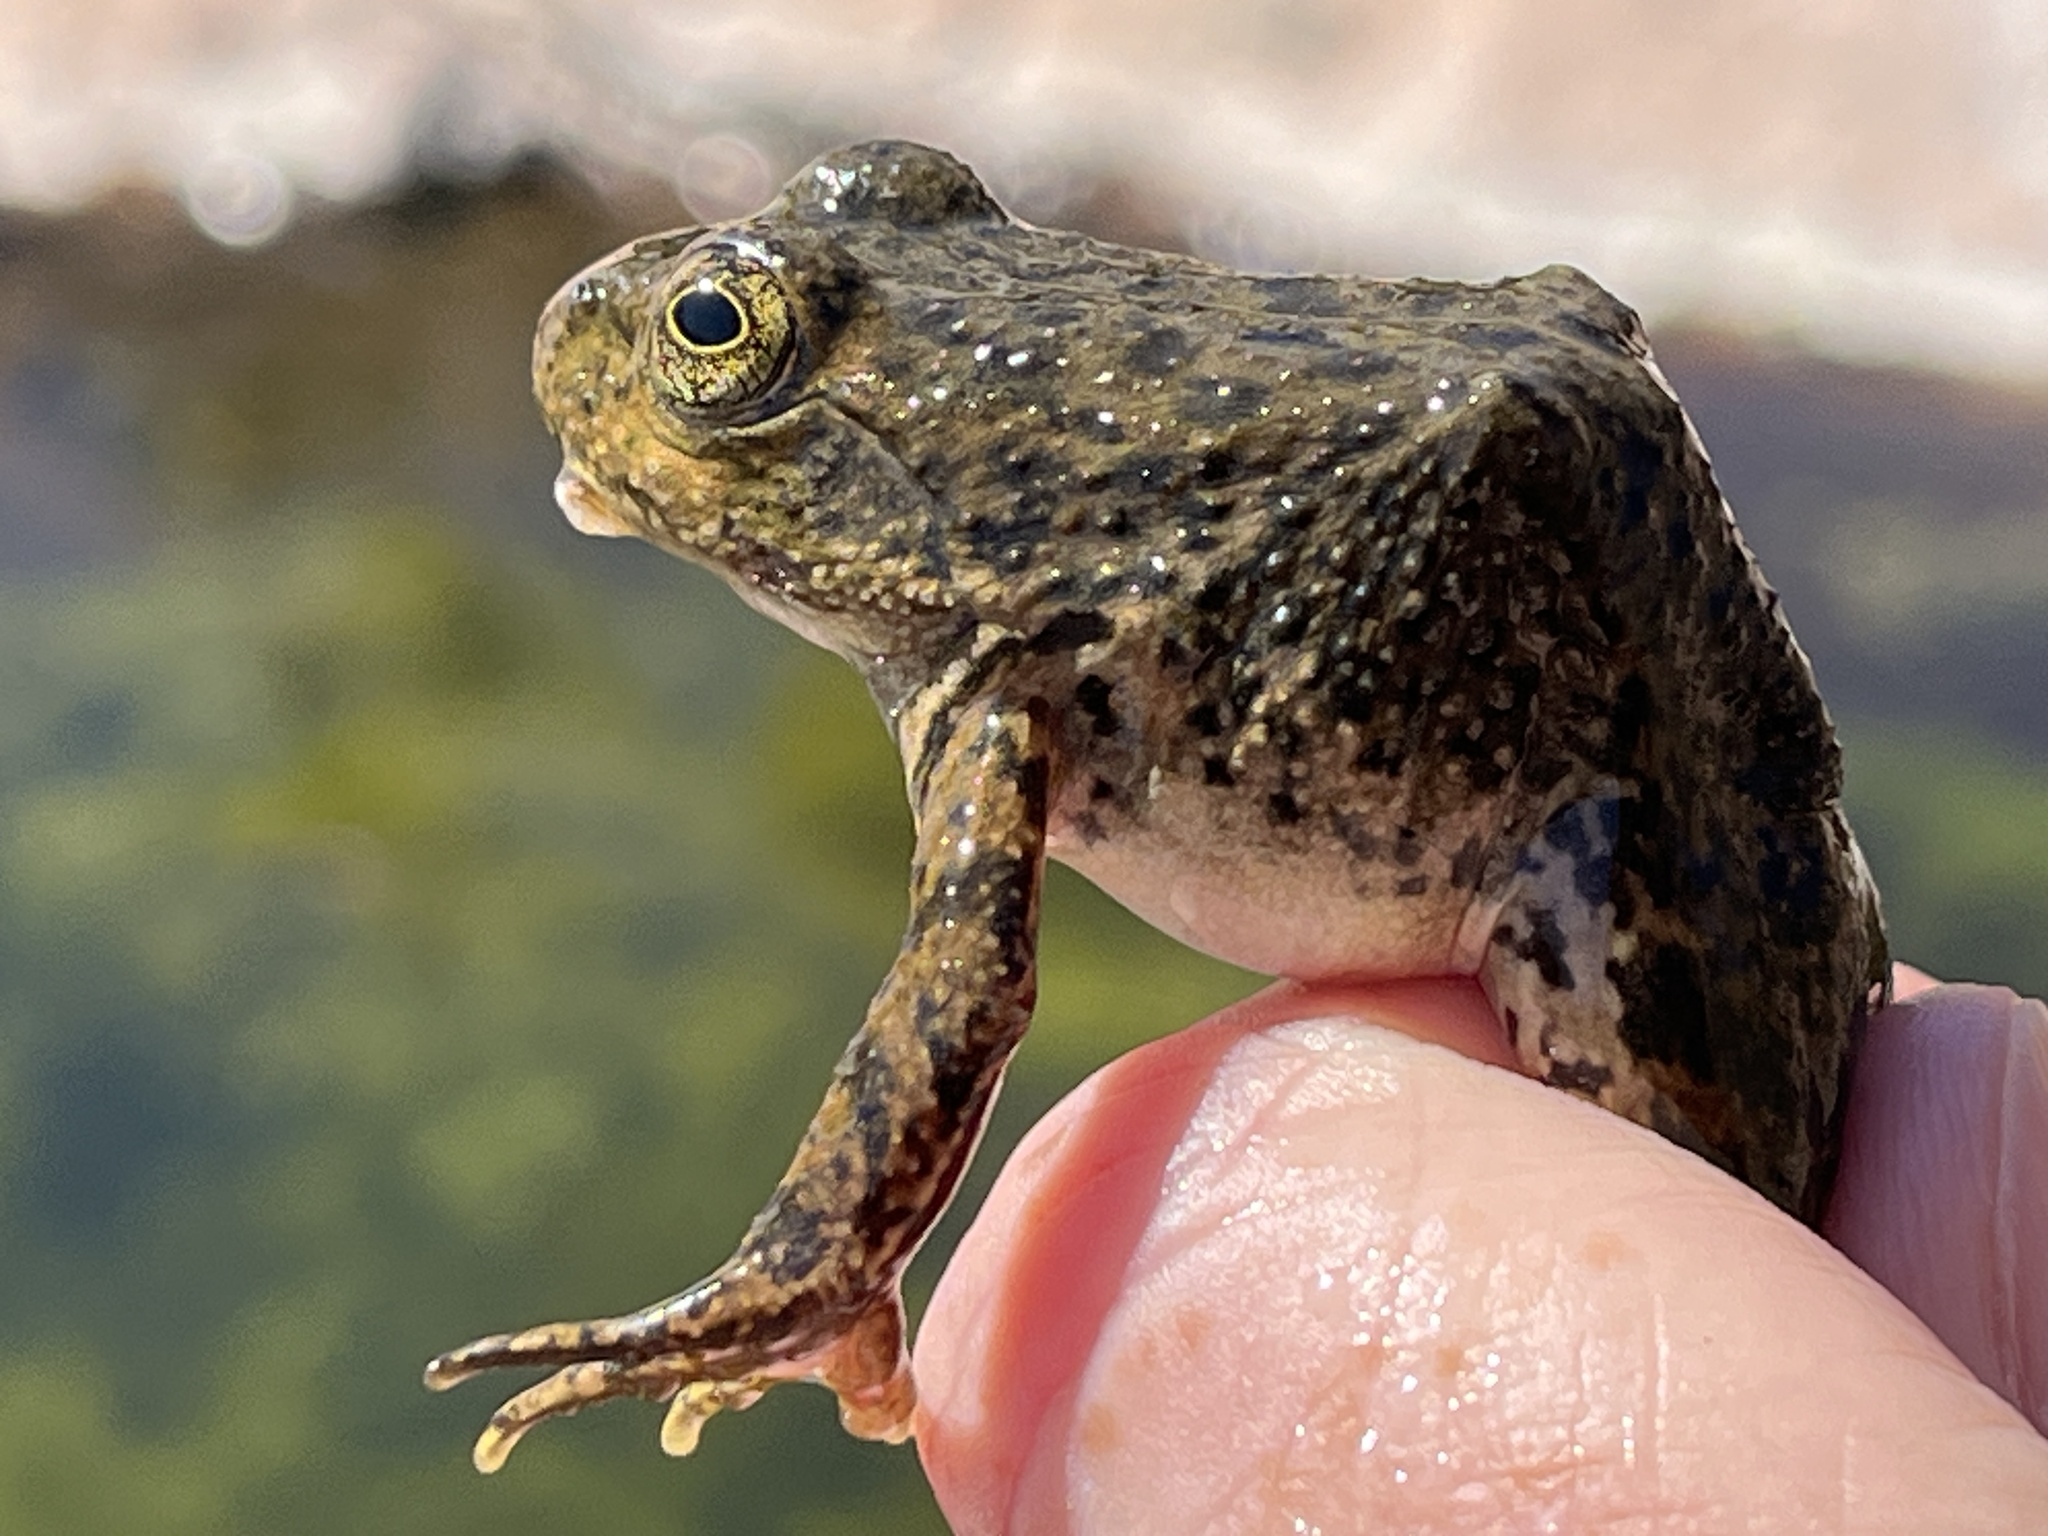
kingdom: Animalia
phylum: Chordata
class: Amphibia
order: Anura
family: Ranidae
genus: Lithobates
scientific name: Lithobates tarahumarae
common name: Tarahumara frog
